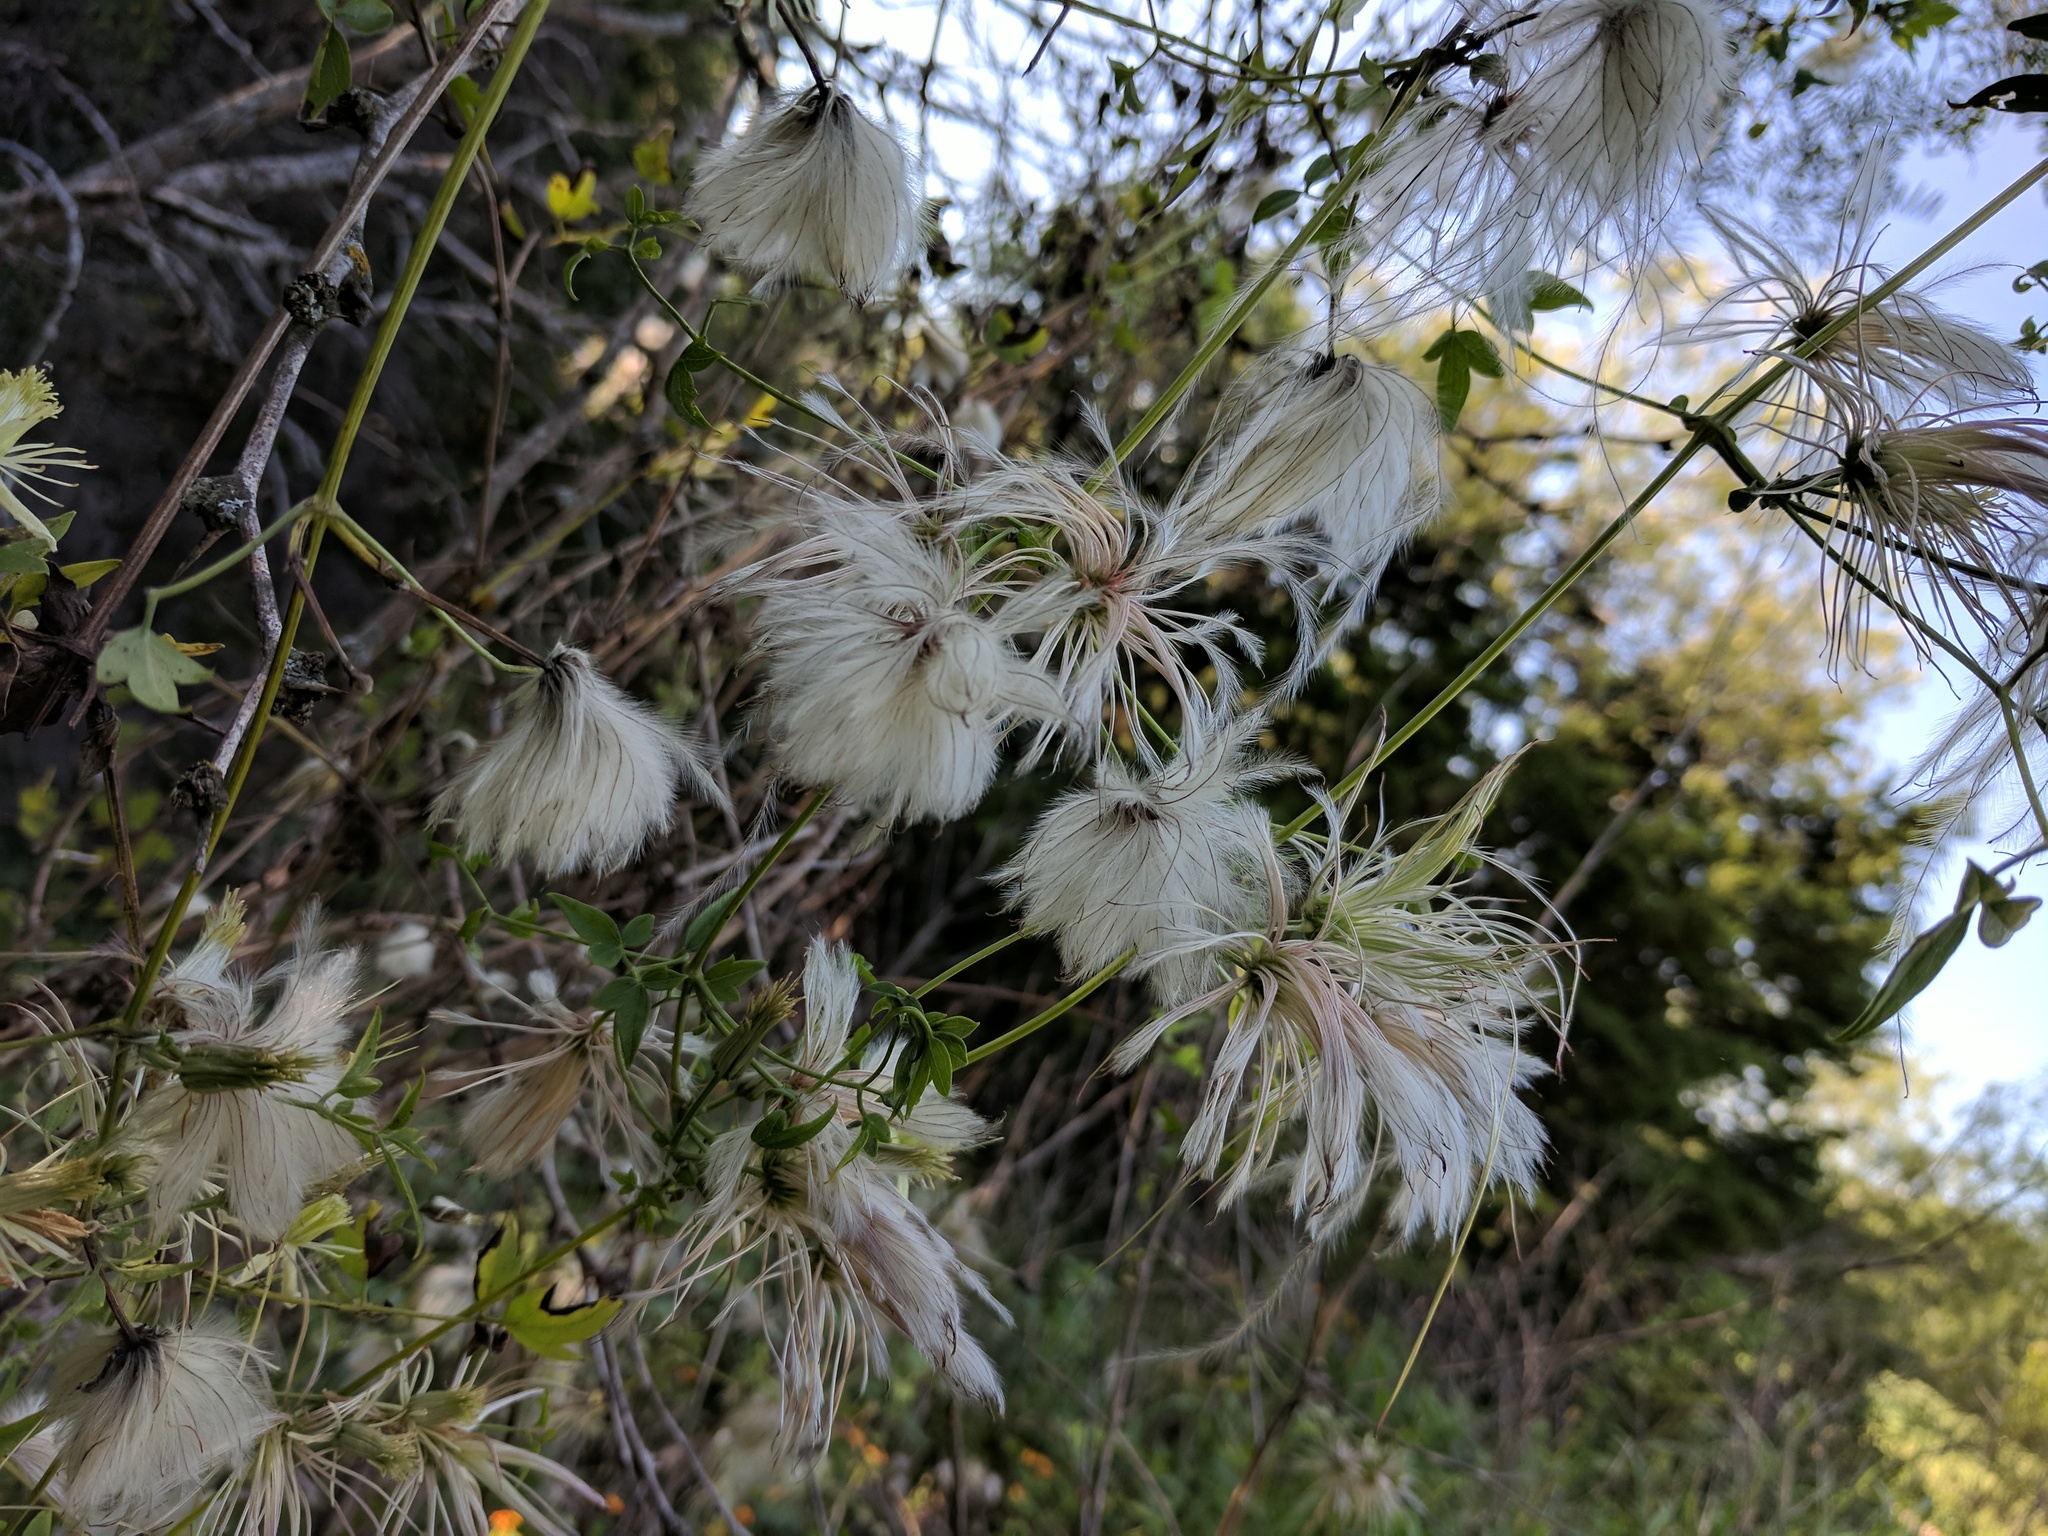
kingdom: Plantae
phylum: Tracheophyta
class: Magnoliopsida
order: Ranunculales
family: Ranunculaceae
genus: Clematis
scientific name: Clematis drummondii
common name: Texas virgin's bower
